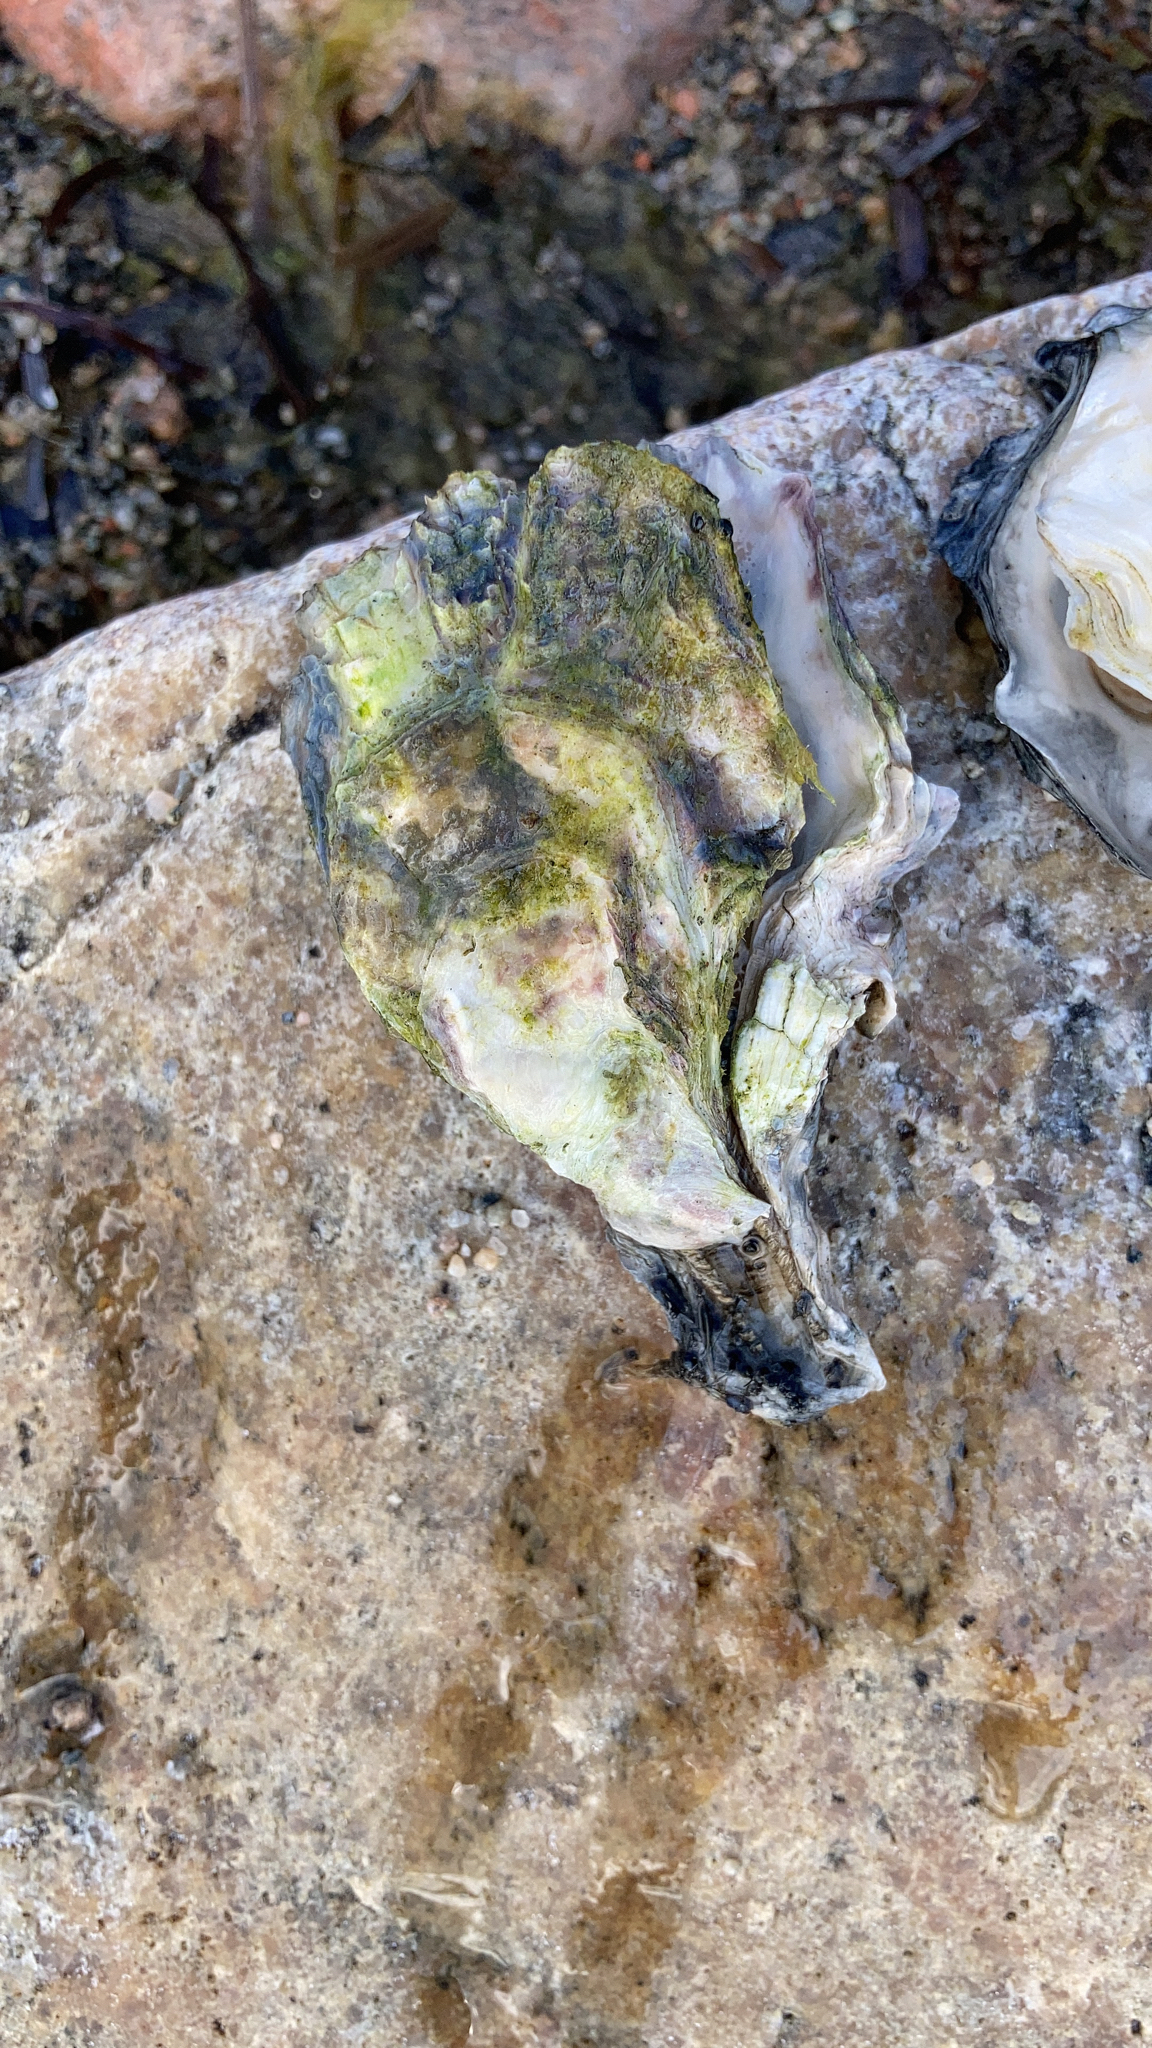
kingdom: Animalia
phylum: Mollusca
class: Bivalvia
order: Ostreida
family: Ostreidae
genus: Magallana
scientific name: Magallana gigas
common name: Pacific oyster
